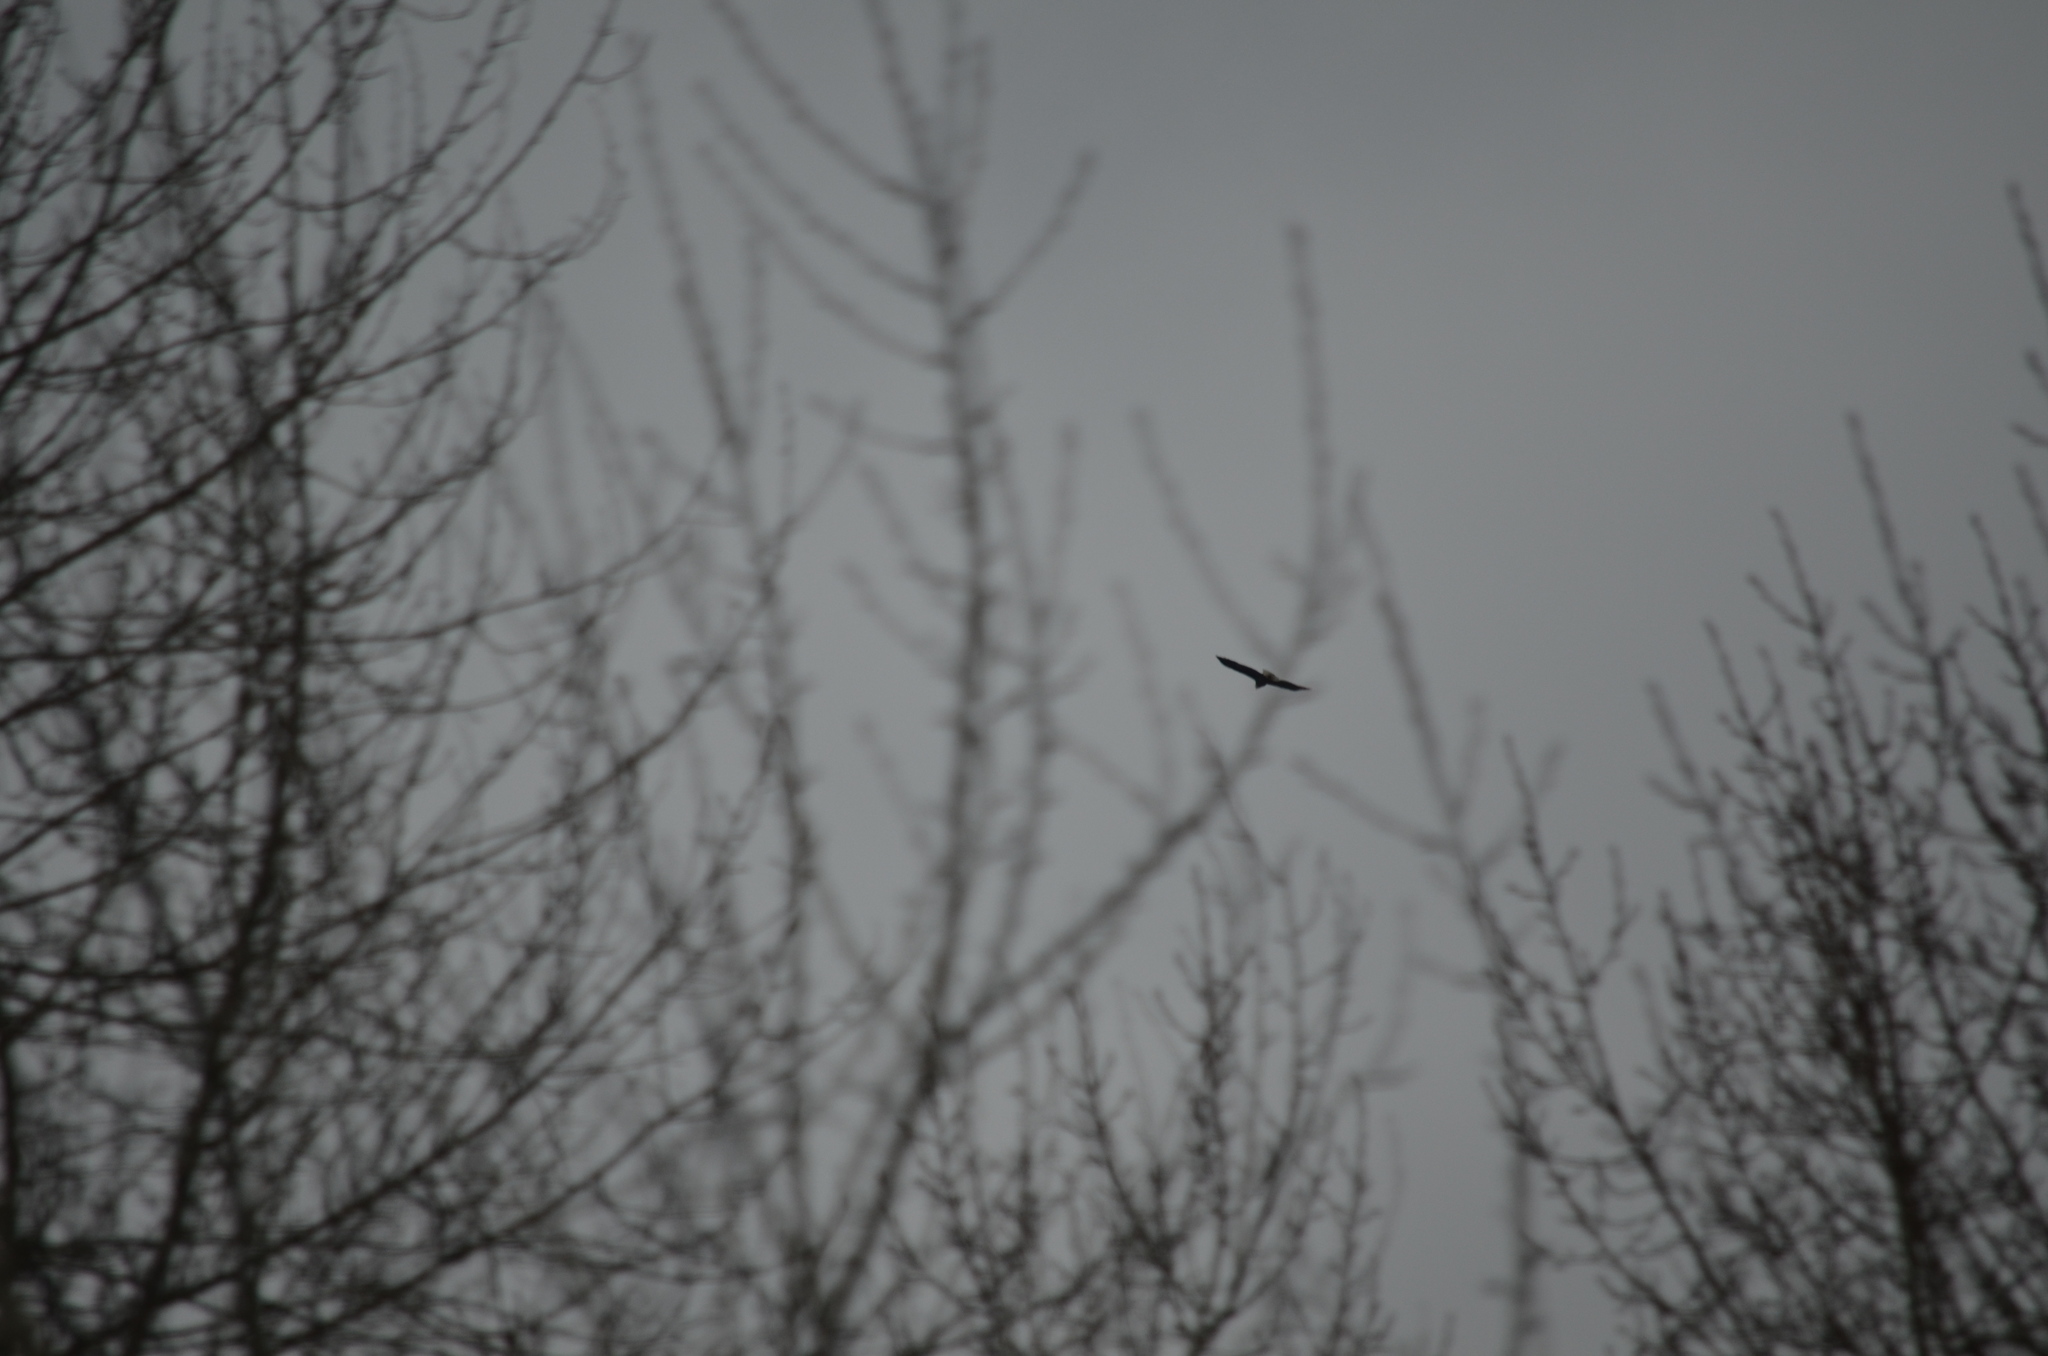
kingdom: Animalia
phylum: Chordata
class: Aves
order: Accipitriformes
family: Accipitridae
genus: Haliaeetus
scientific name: Haliaeetus leucocephalus
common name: Bald eagle
